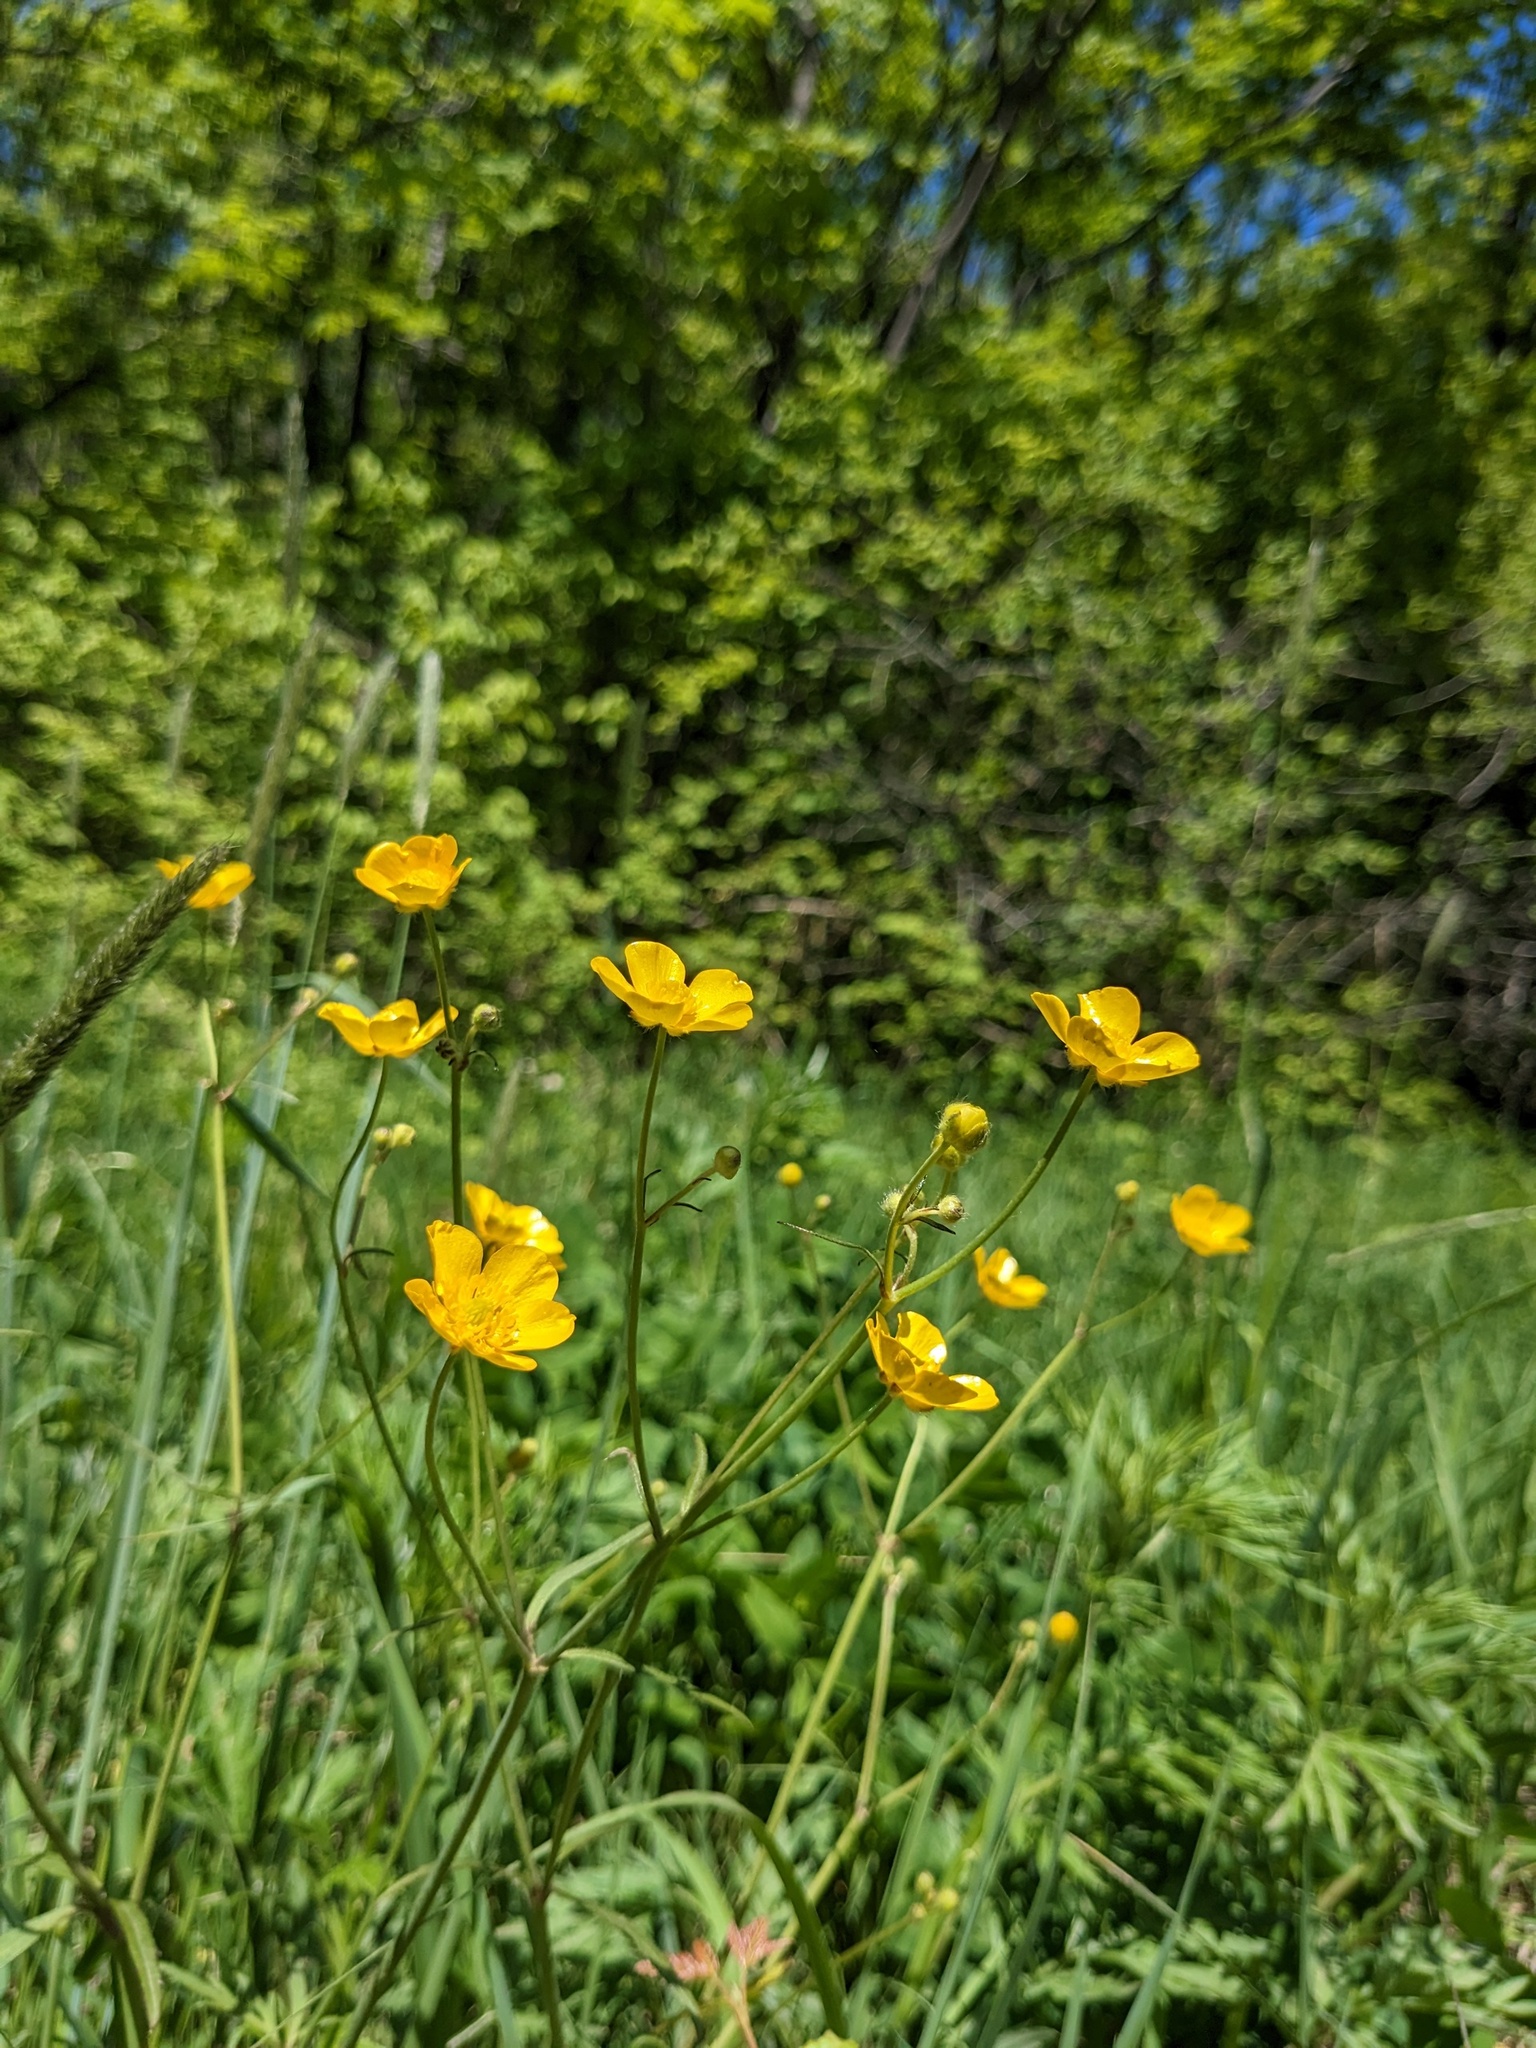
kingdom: Plantae
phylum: Tracheophyta
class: Magnoliopsida
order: Ranunculales
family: Ranunculaceae
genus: Ranunculus
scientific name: Ranunculus japonicus
